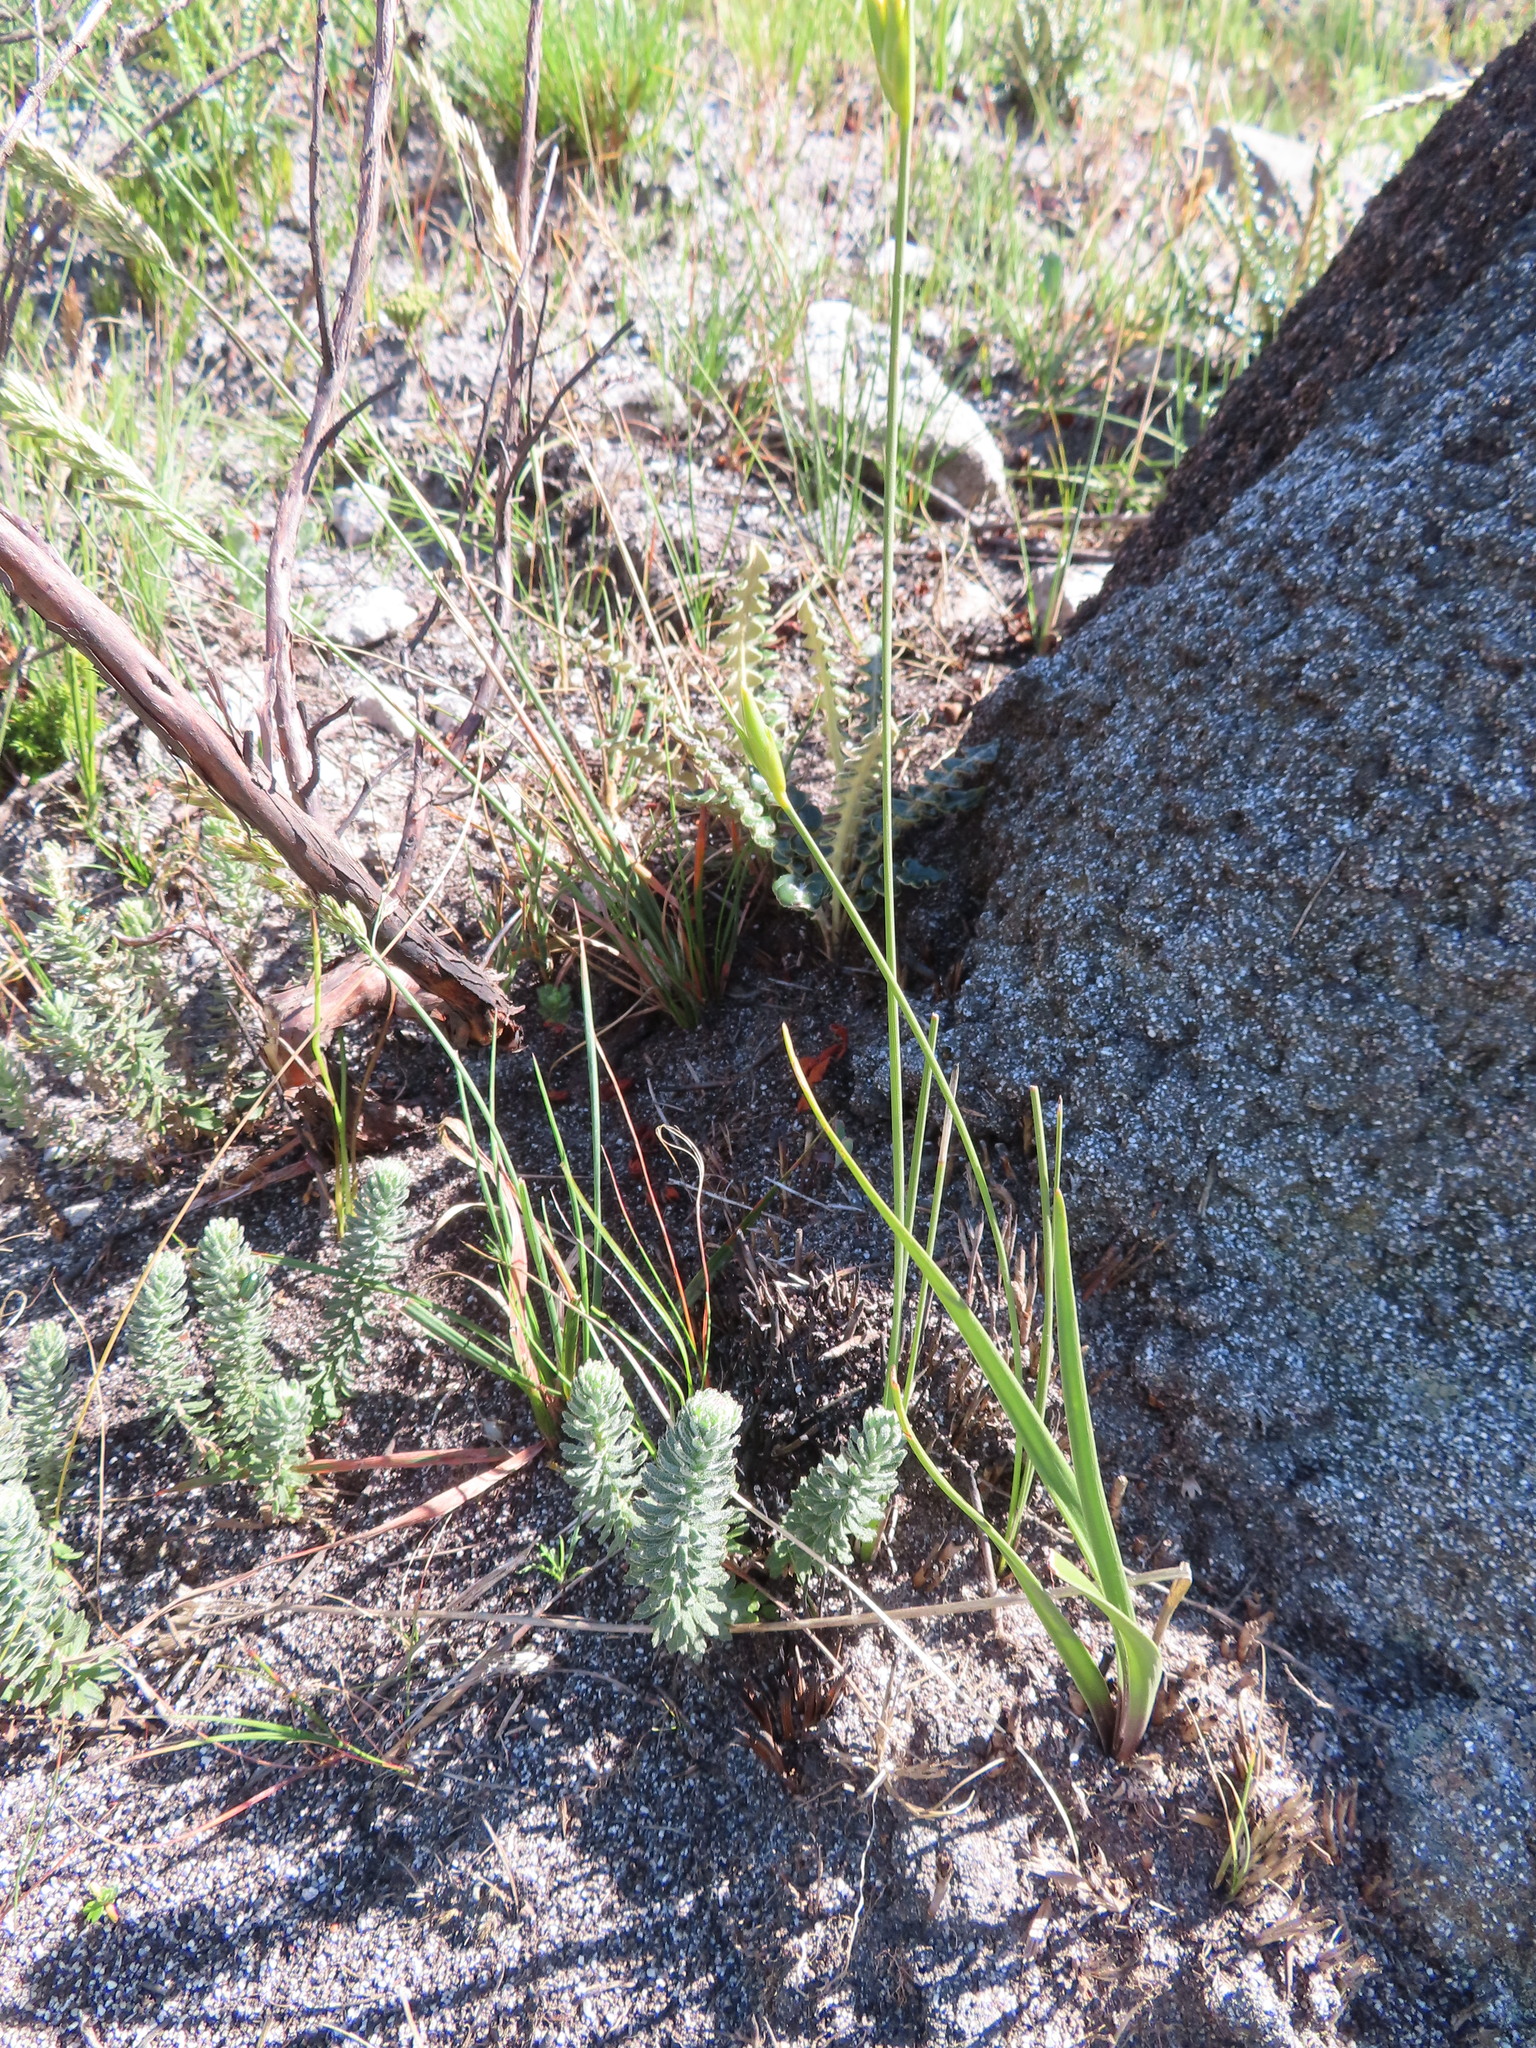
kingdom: Plantae
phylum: Tracheophyta
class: Magnoliopsida
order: Asterales
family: Asteraceae
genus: Osmitopsis
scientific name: Osmitopsis afra
